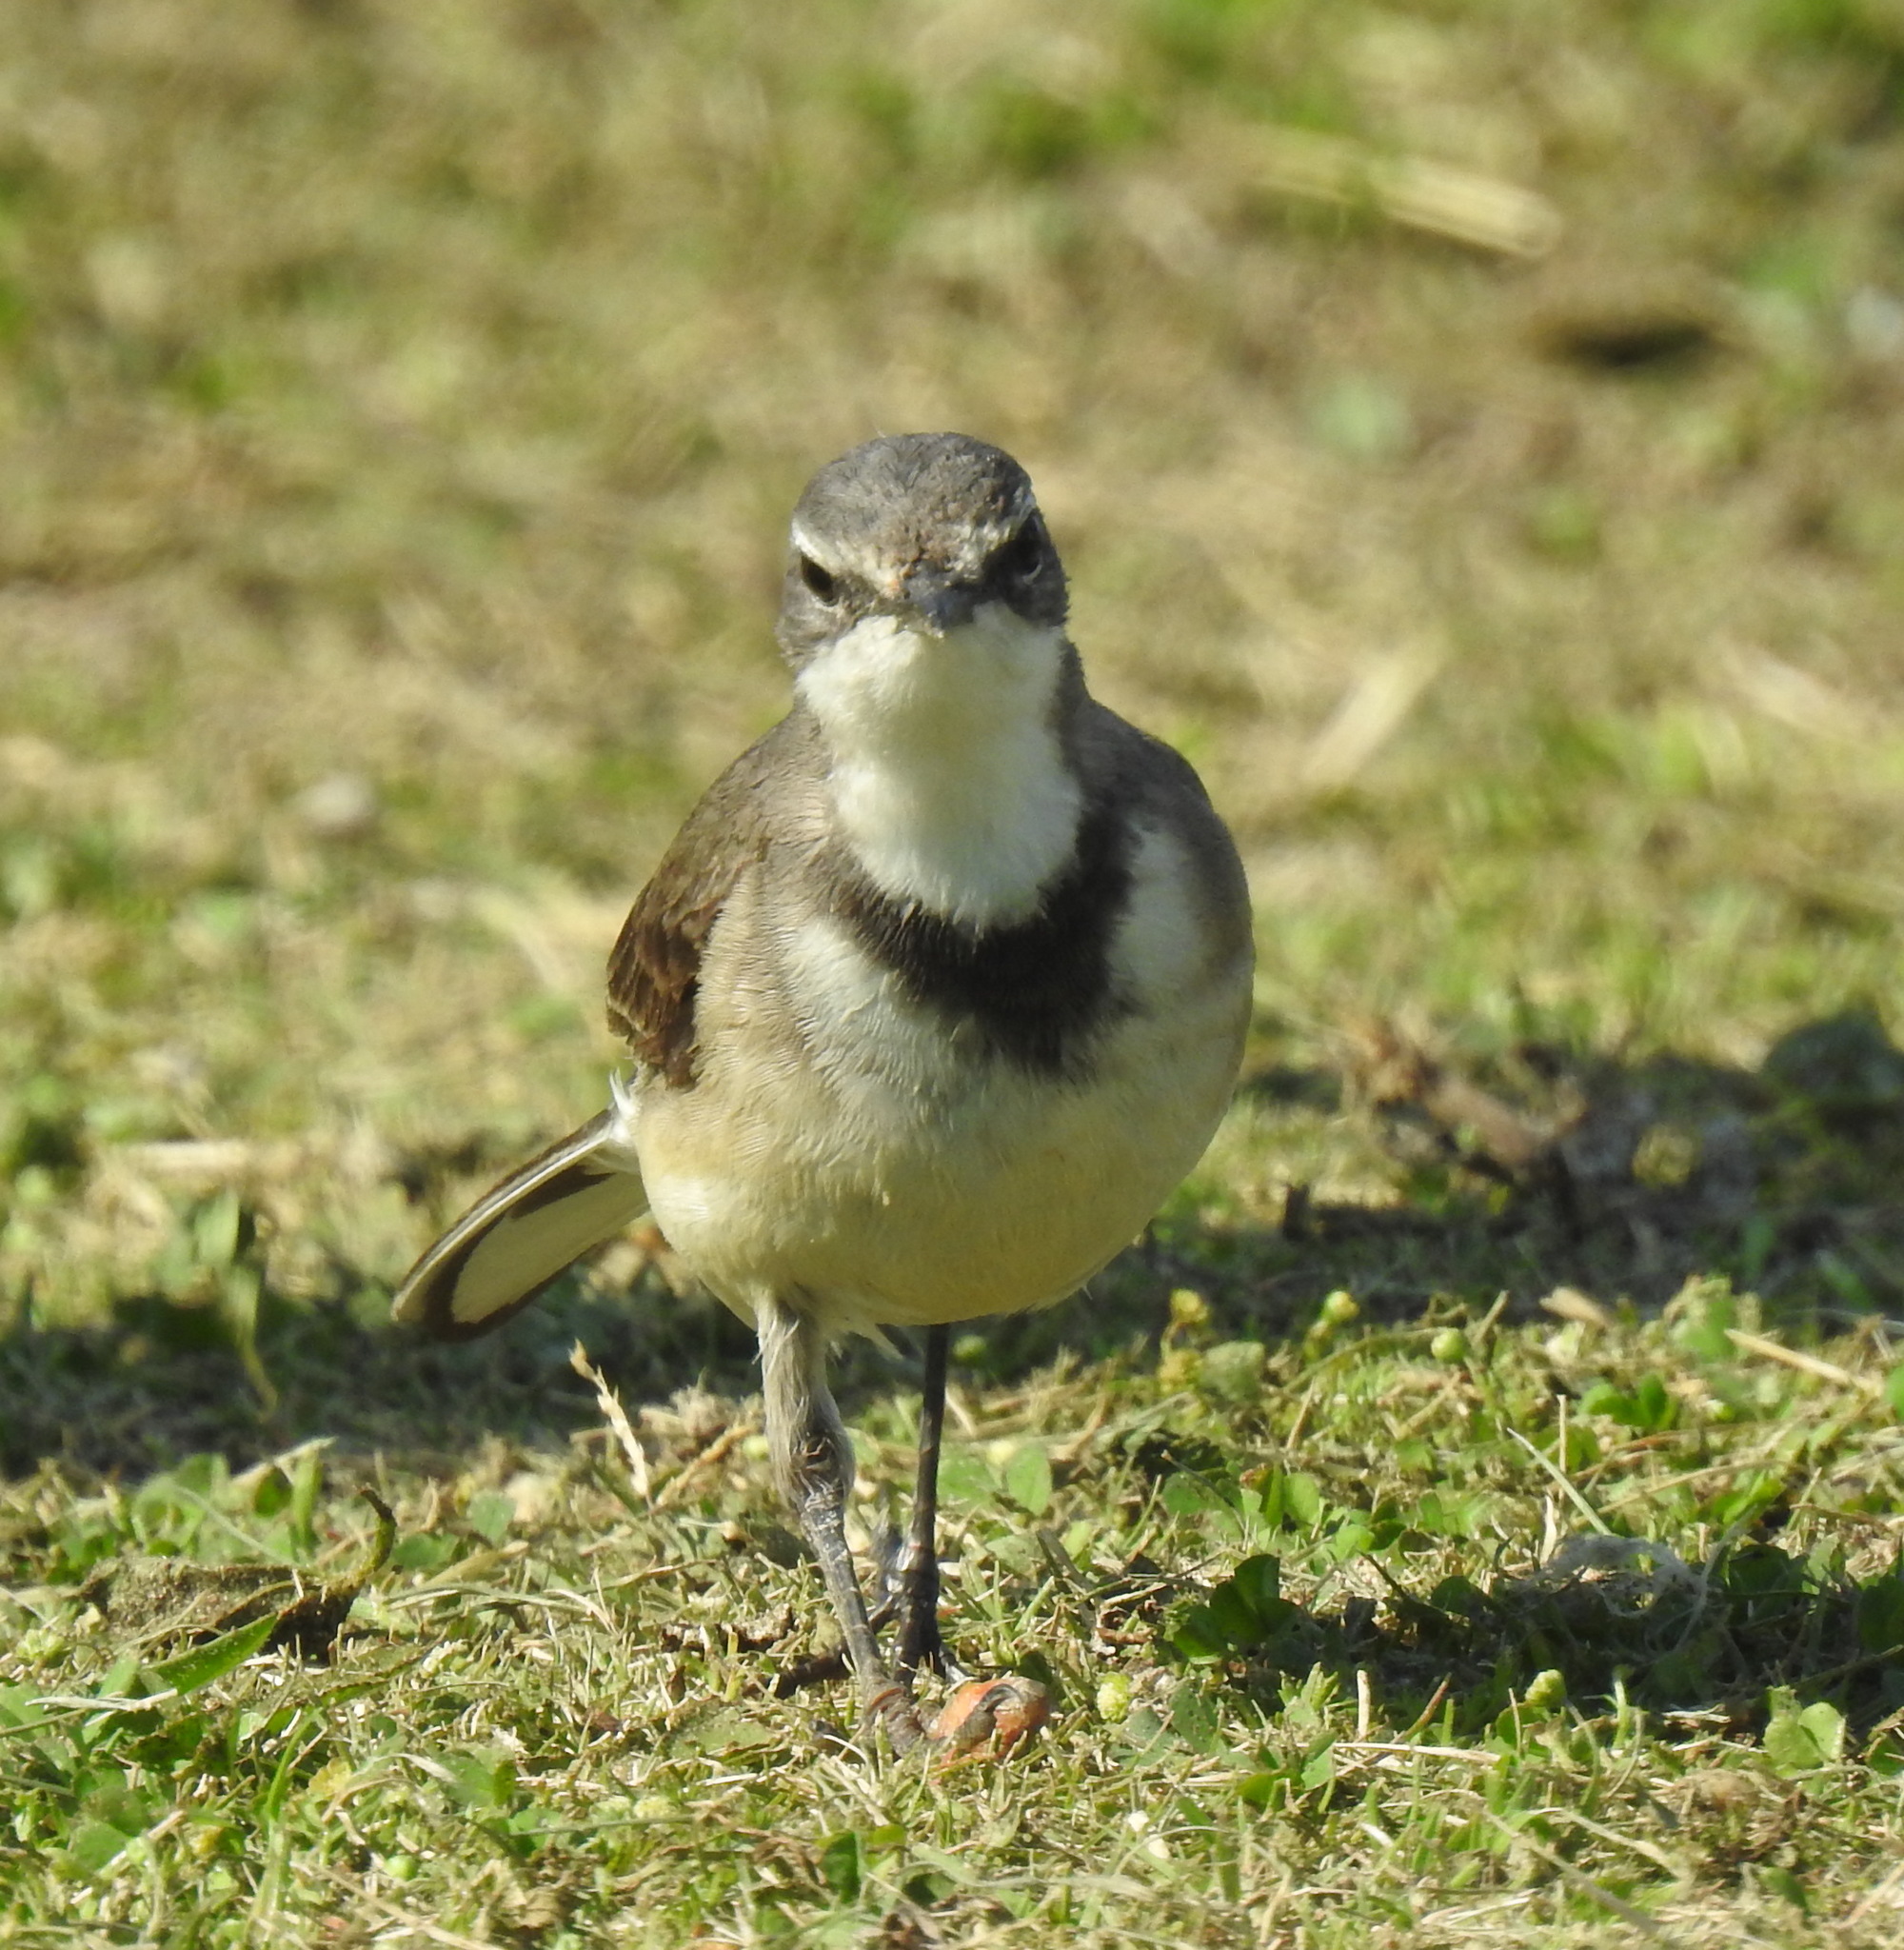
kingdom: Animalia
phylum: Chordata
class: Aves
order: Passeriformes
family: Motacillidae
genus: Motacilla
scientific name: Motacilla capensis
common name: Cape wagtail
